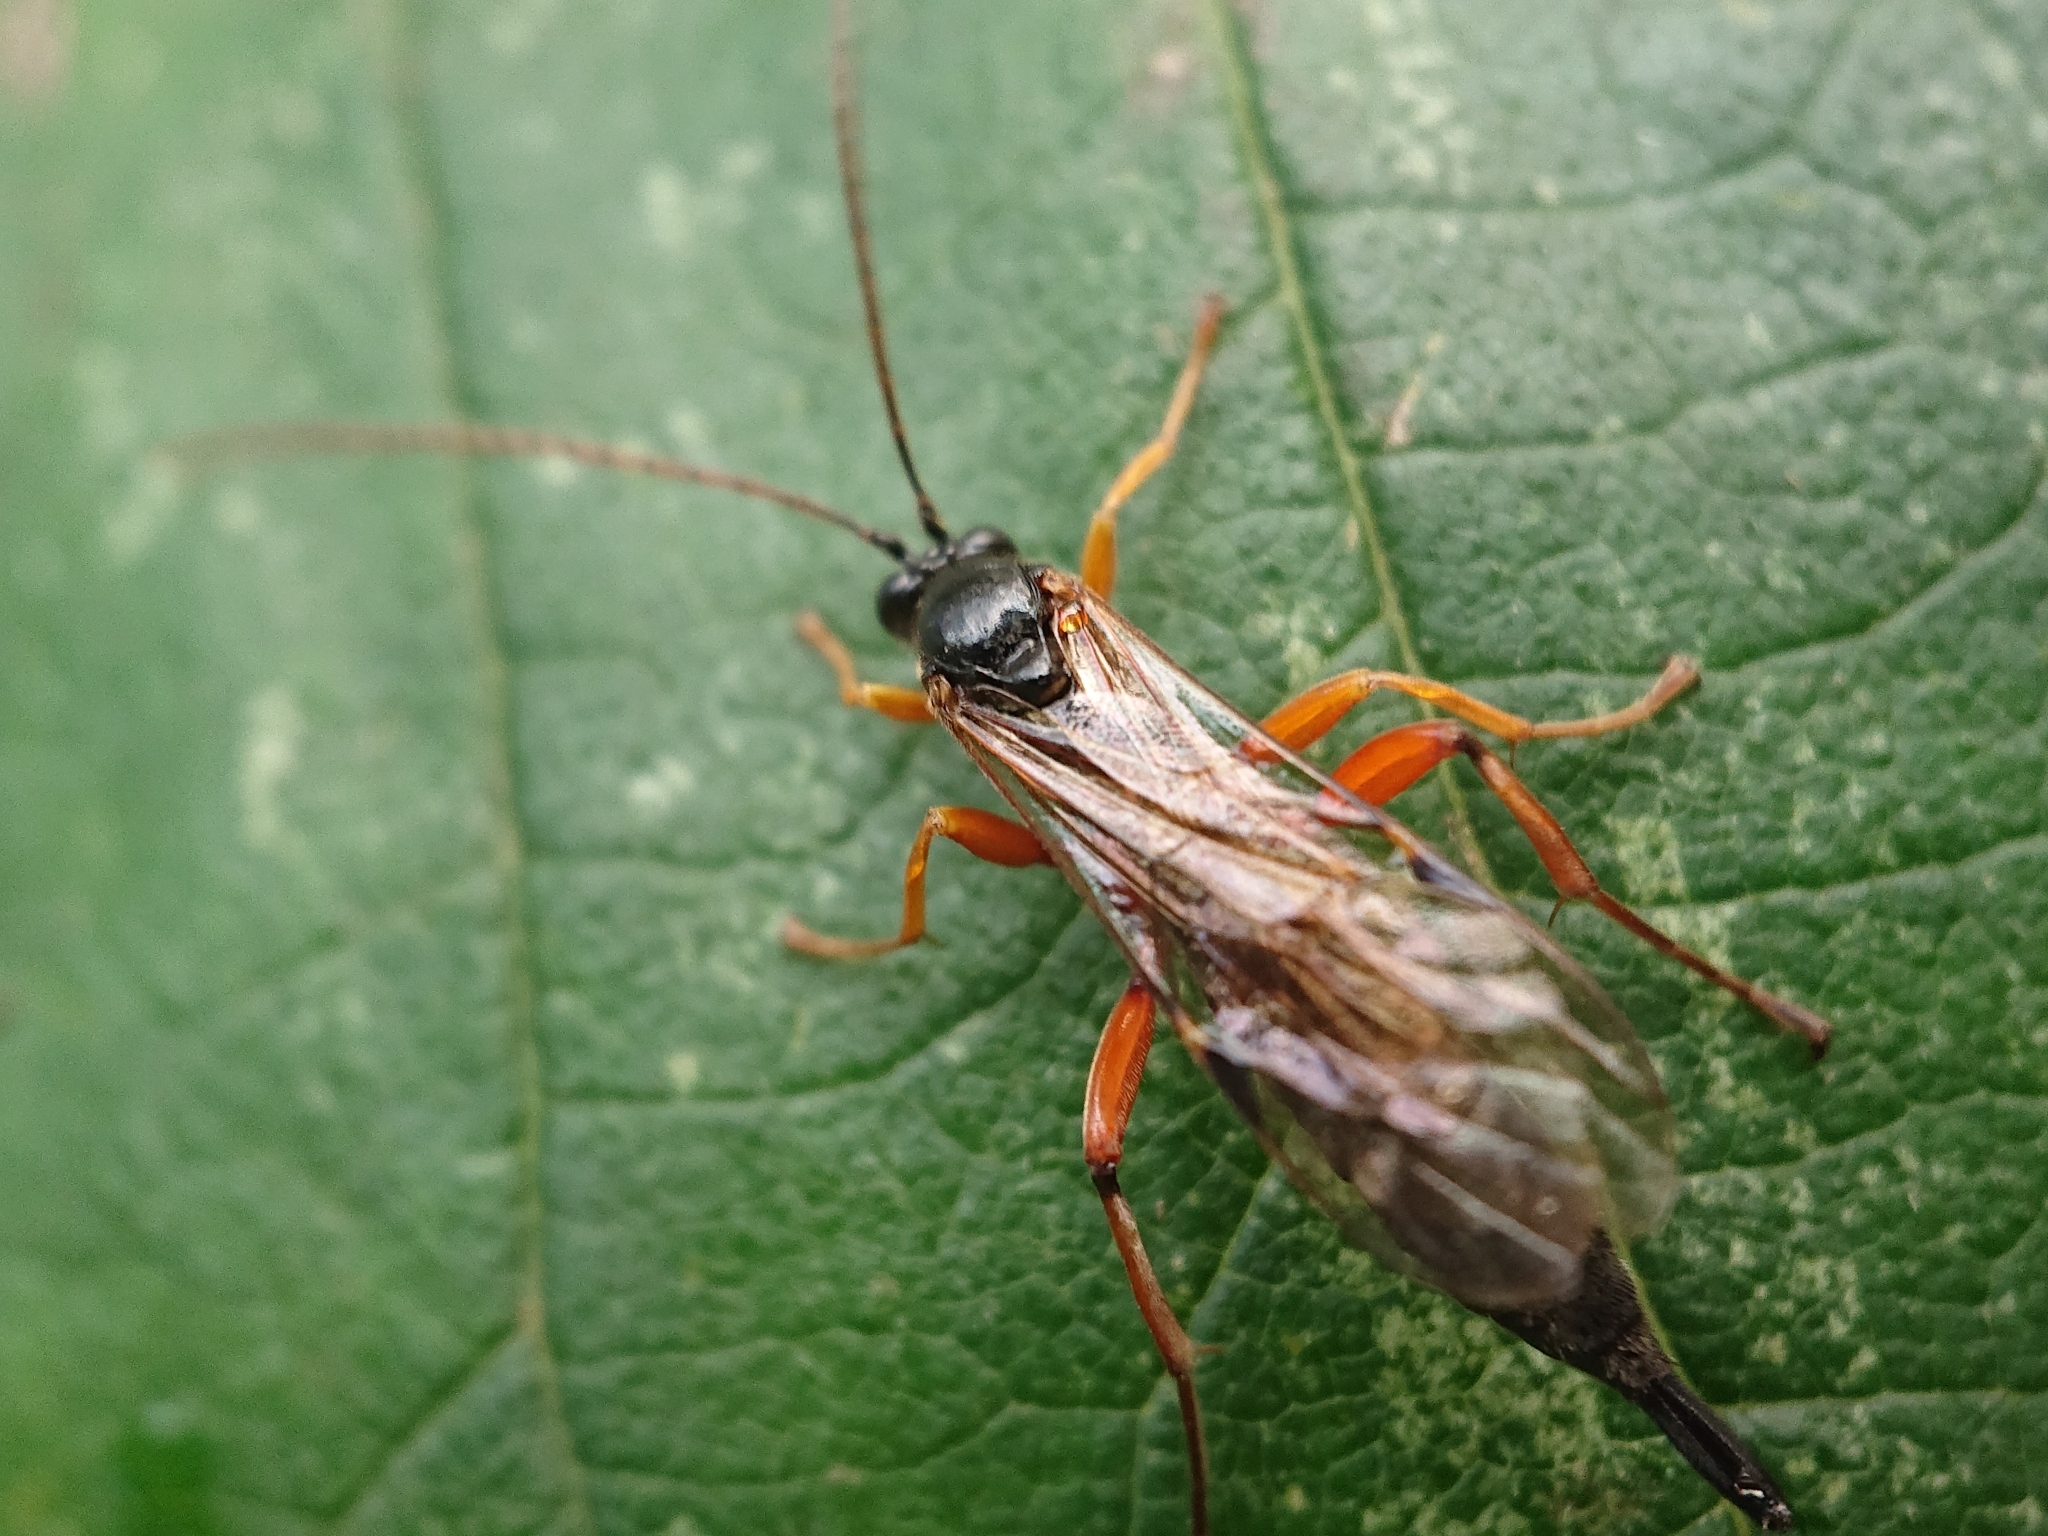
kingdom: Animalia
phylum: Arthropoda
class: Insecta
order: Hymenoptera
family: Ichneumonidae
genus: Apechthis
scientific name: Apechthis compunctor
